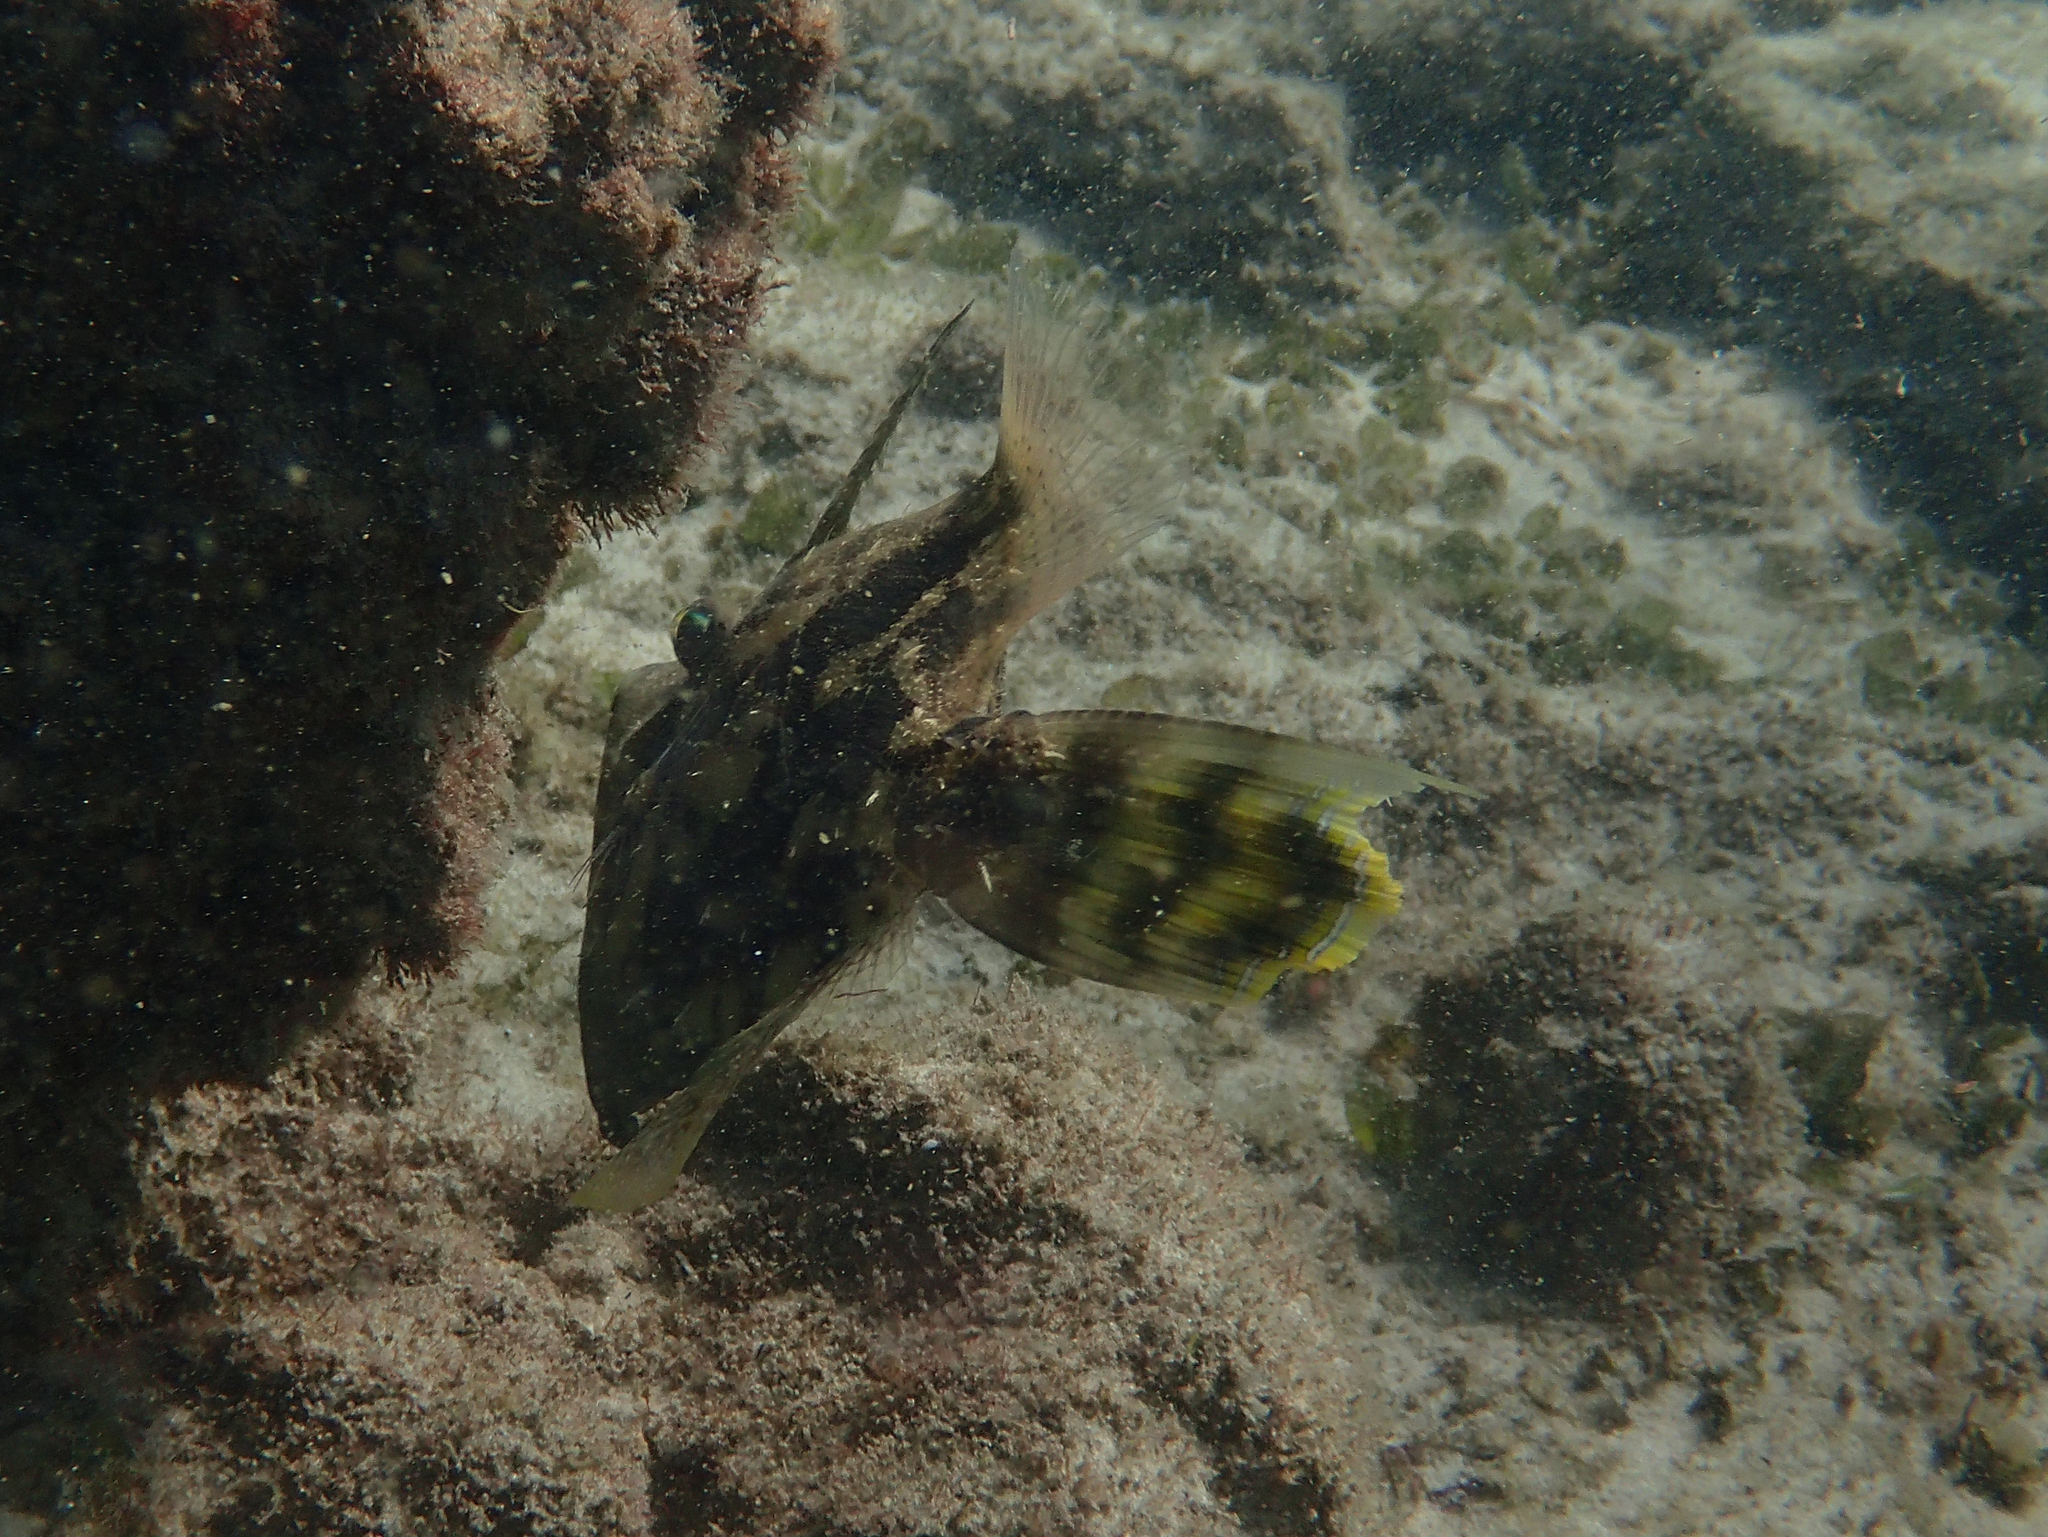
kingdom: Animalia
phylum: Chordata
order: Tetraodontiformes
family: Monacanthidae
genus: Monacanthus
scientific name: Monacanthus chinensis
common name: Centreboard leatherjacket
